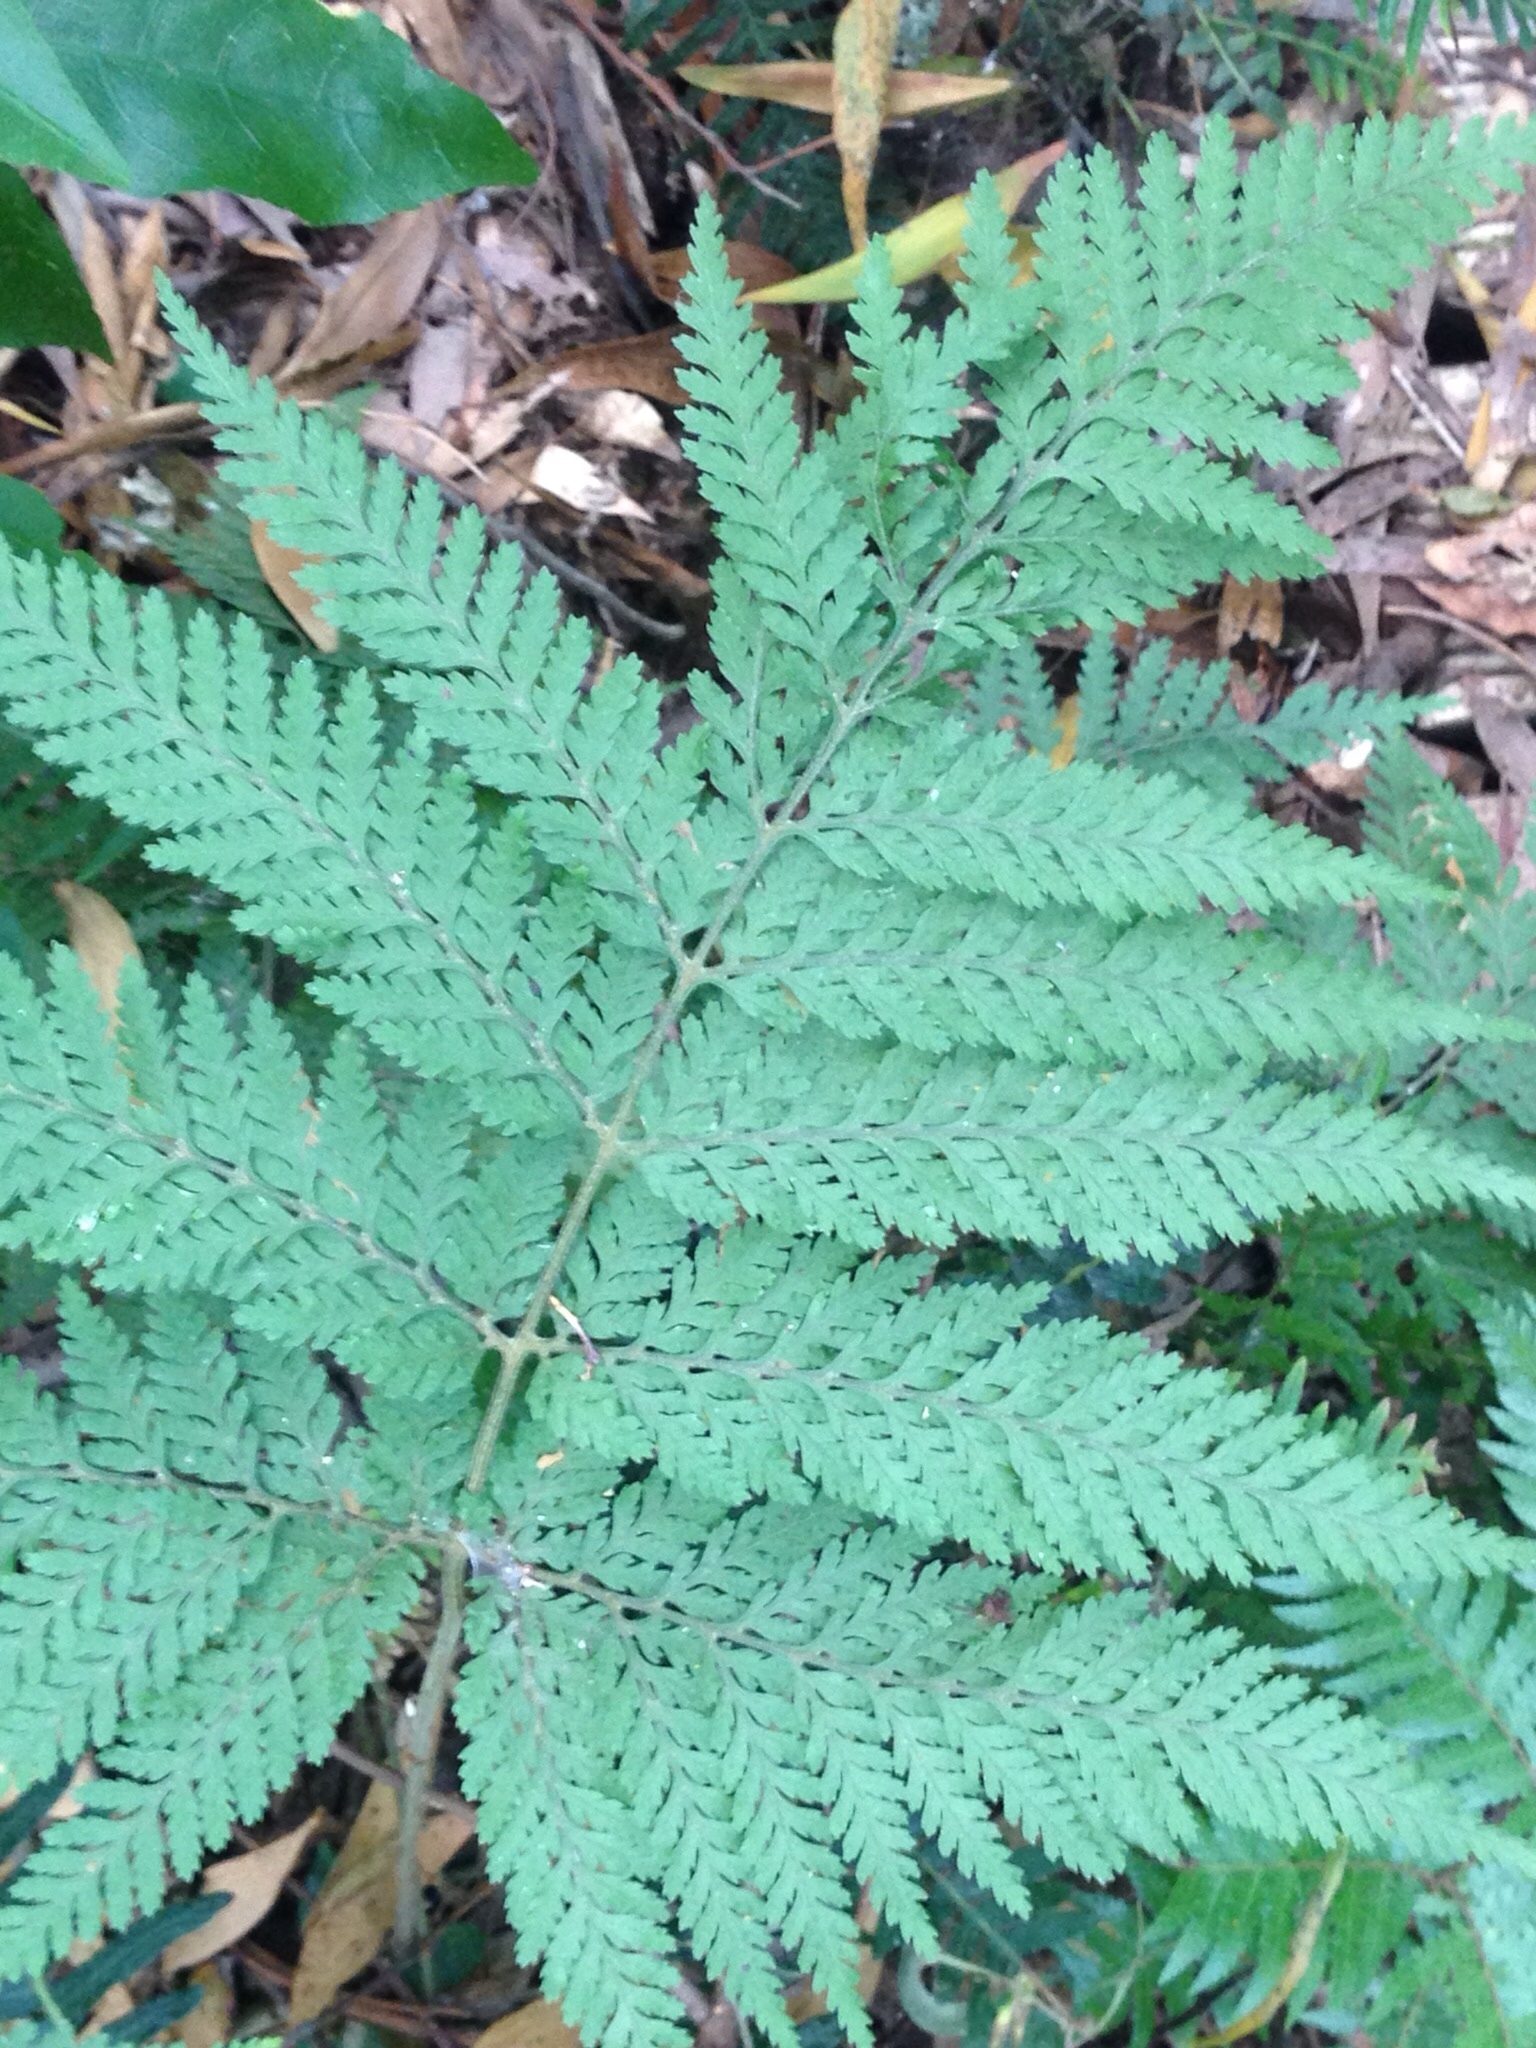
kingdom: Plantae
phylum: Tracheophyta
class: Polypodiopsida
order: Polypodiales
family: Dryopteridaceae
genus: Parapolystichum
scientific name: Parapolystichum microsorum
